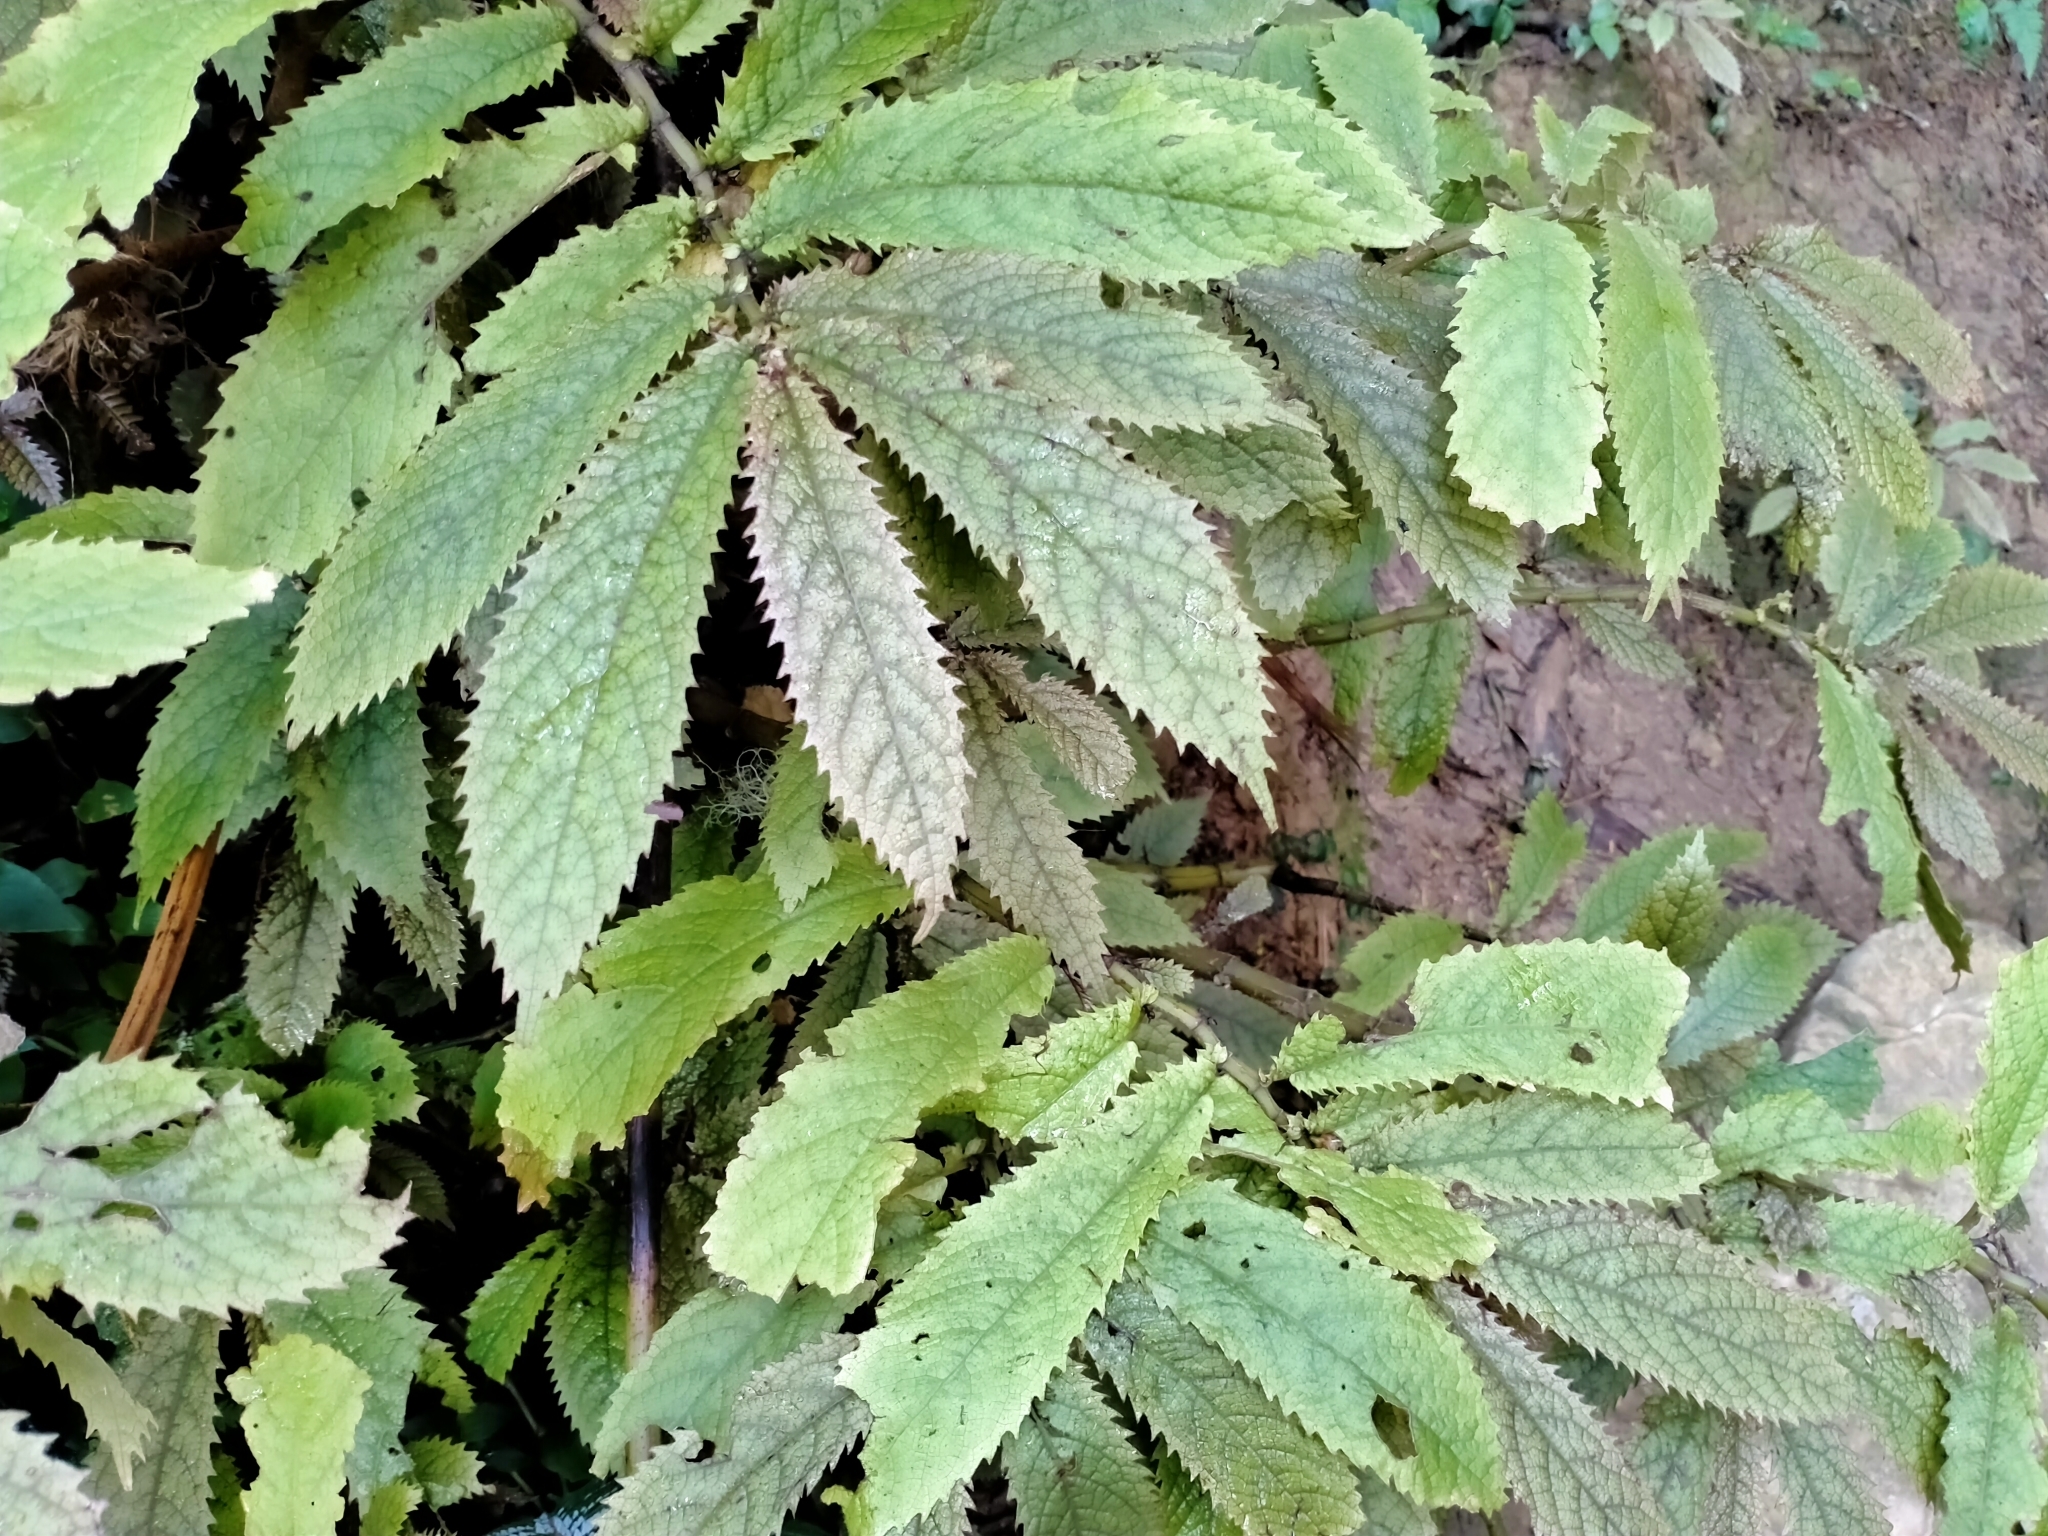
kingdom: Plantae
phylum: Tracheophyta
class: Magnoliopsida
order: Rosales
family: Urticaceae
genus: Elatostema
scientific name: Elatostema rugosum
